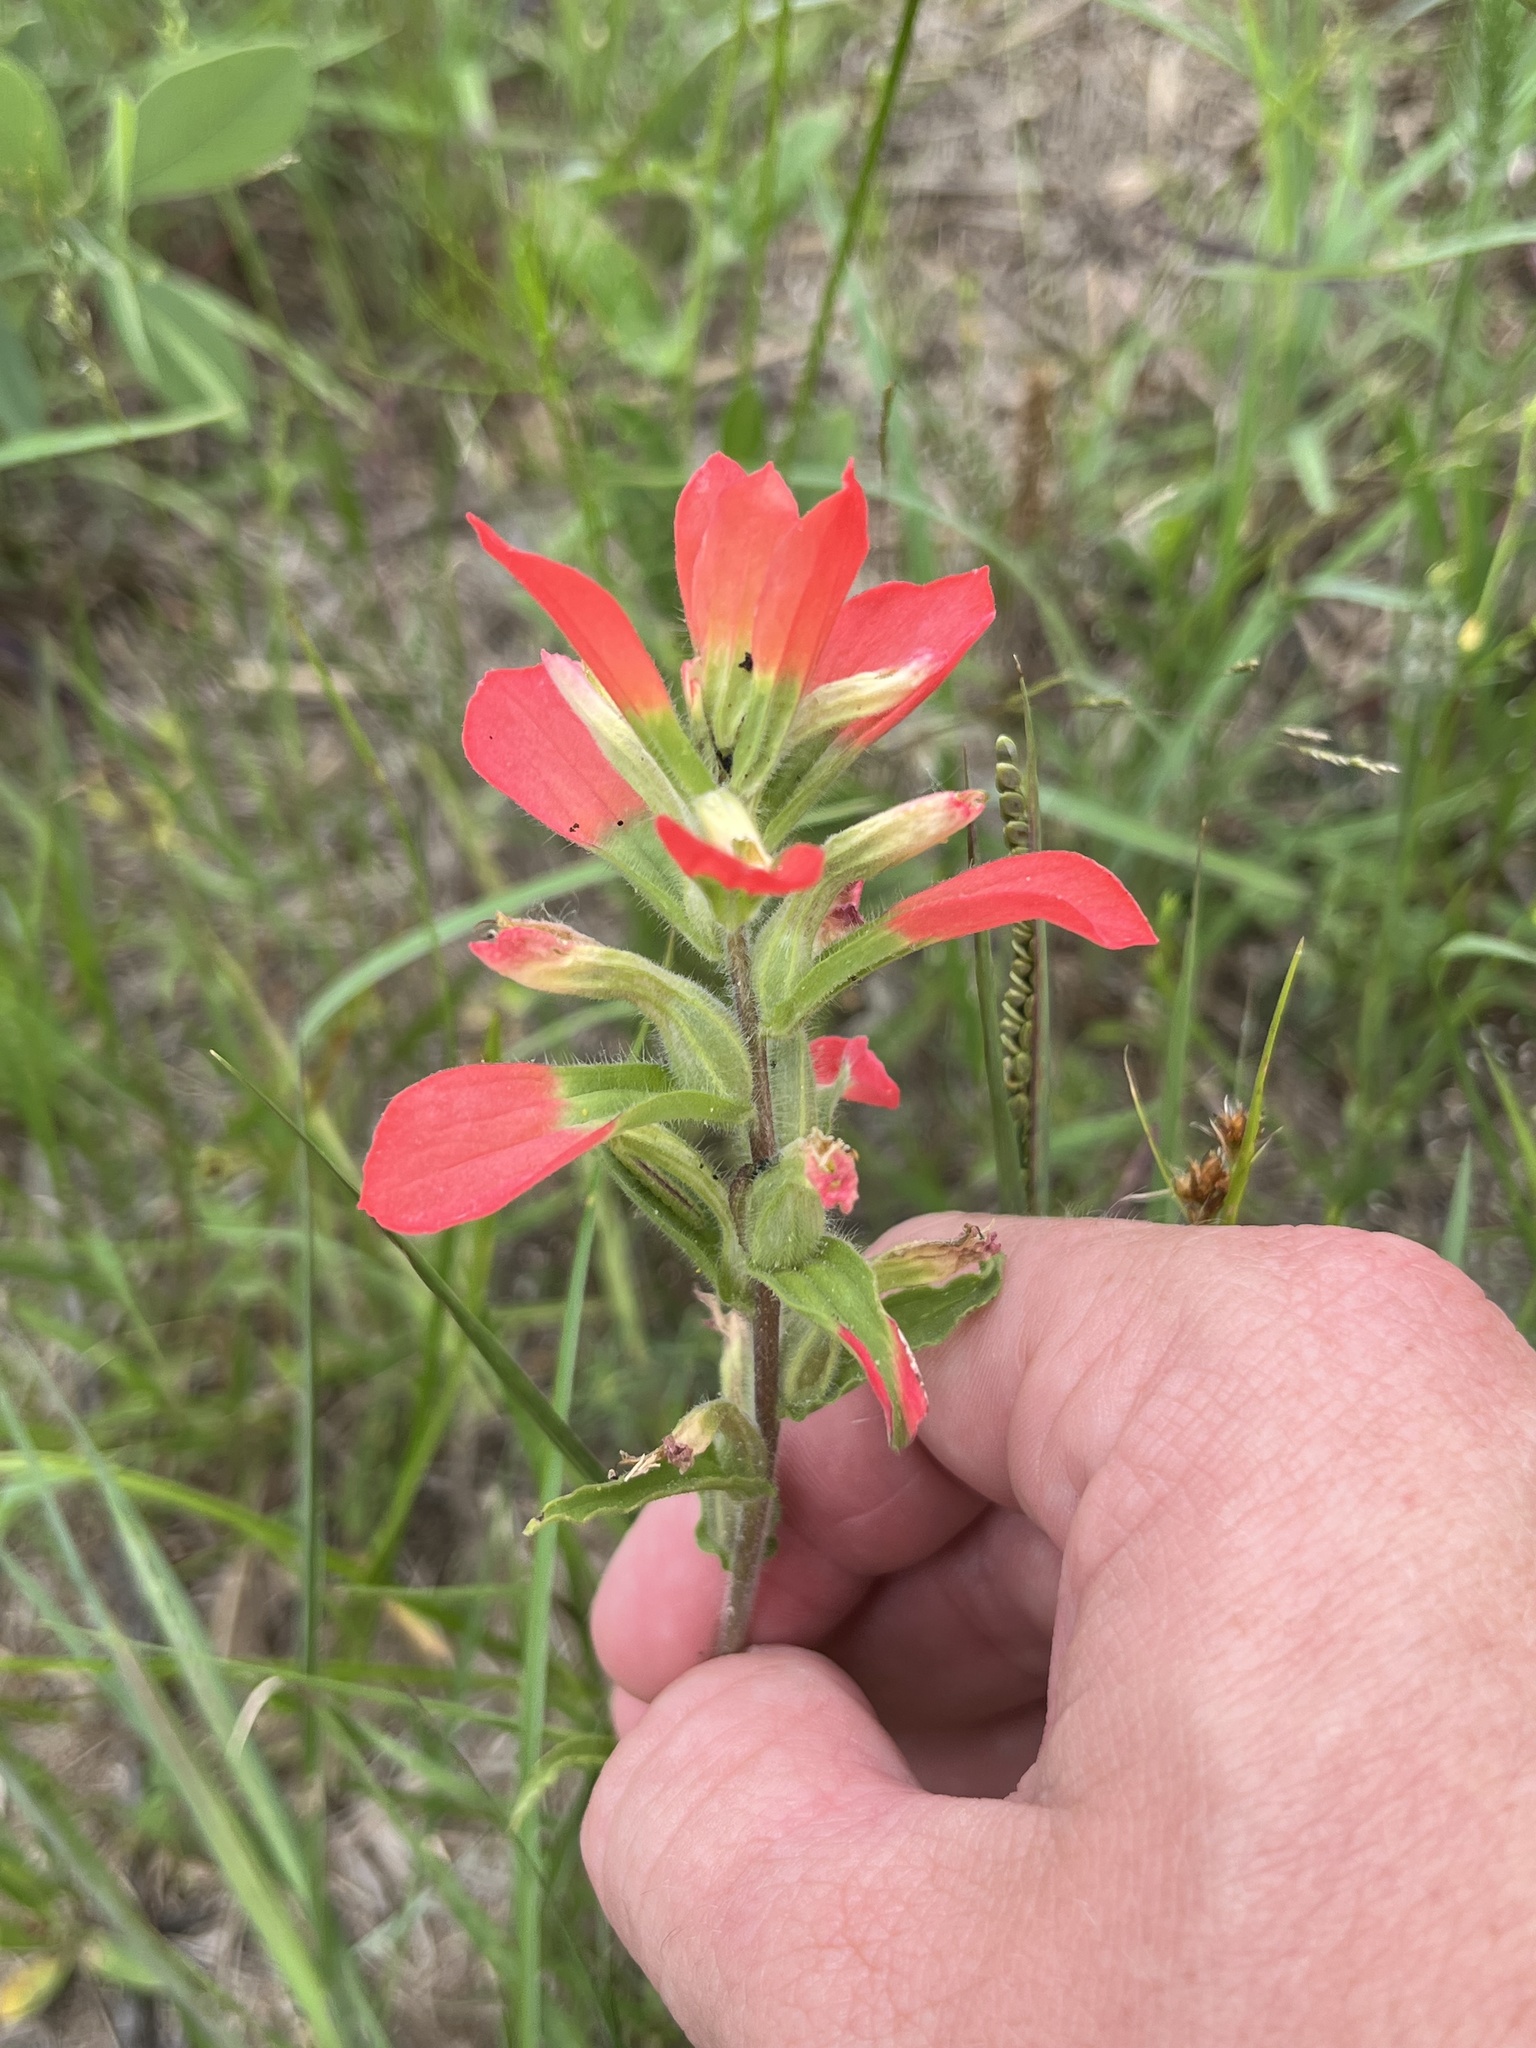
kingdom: Plantae
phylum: Tracheophyta
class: Magnoliopsida
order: Lamiales
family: Orobanchaceae
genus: Castilleja
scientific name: Castilleja indivisa
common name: Texas paintbrush
